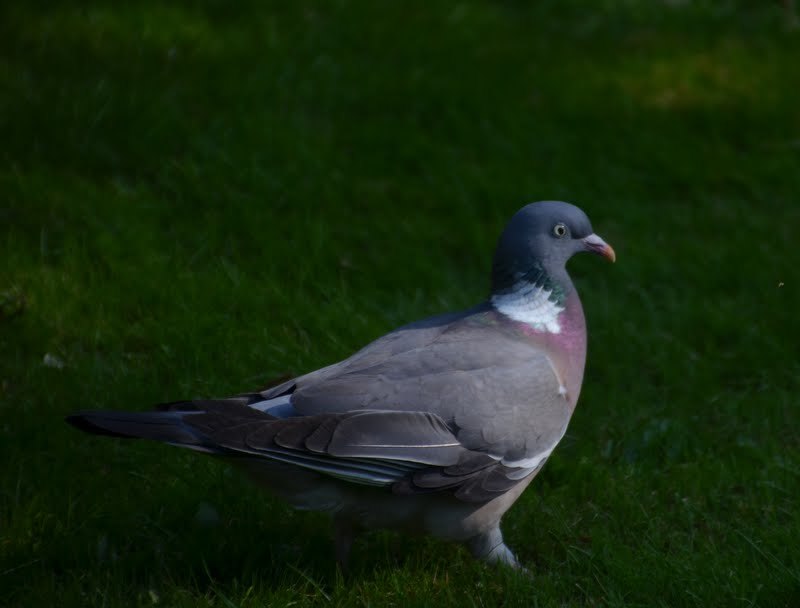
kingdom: Animalia
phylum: Chordata
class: Aves
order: Columbiformes
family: Columbidae
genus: Columba
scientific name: Columba palumbus
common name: Common wood pigeon
